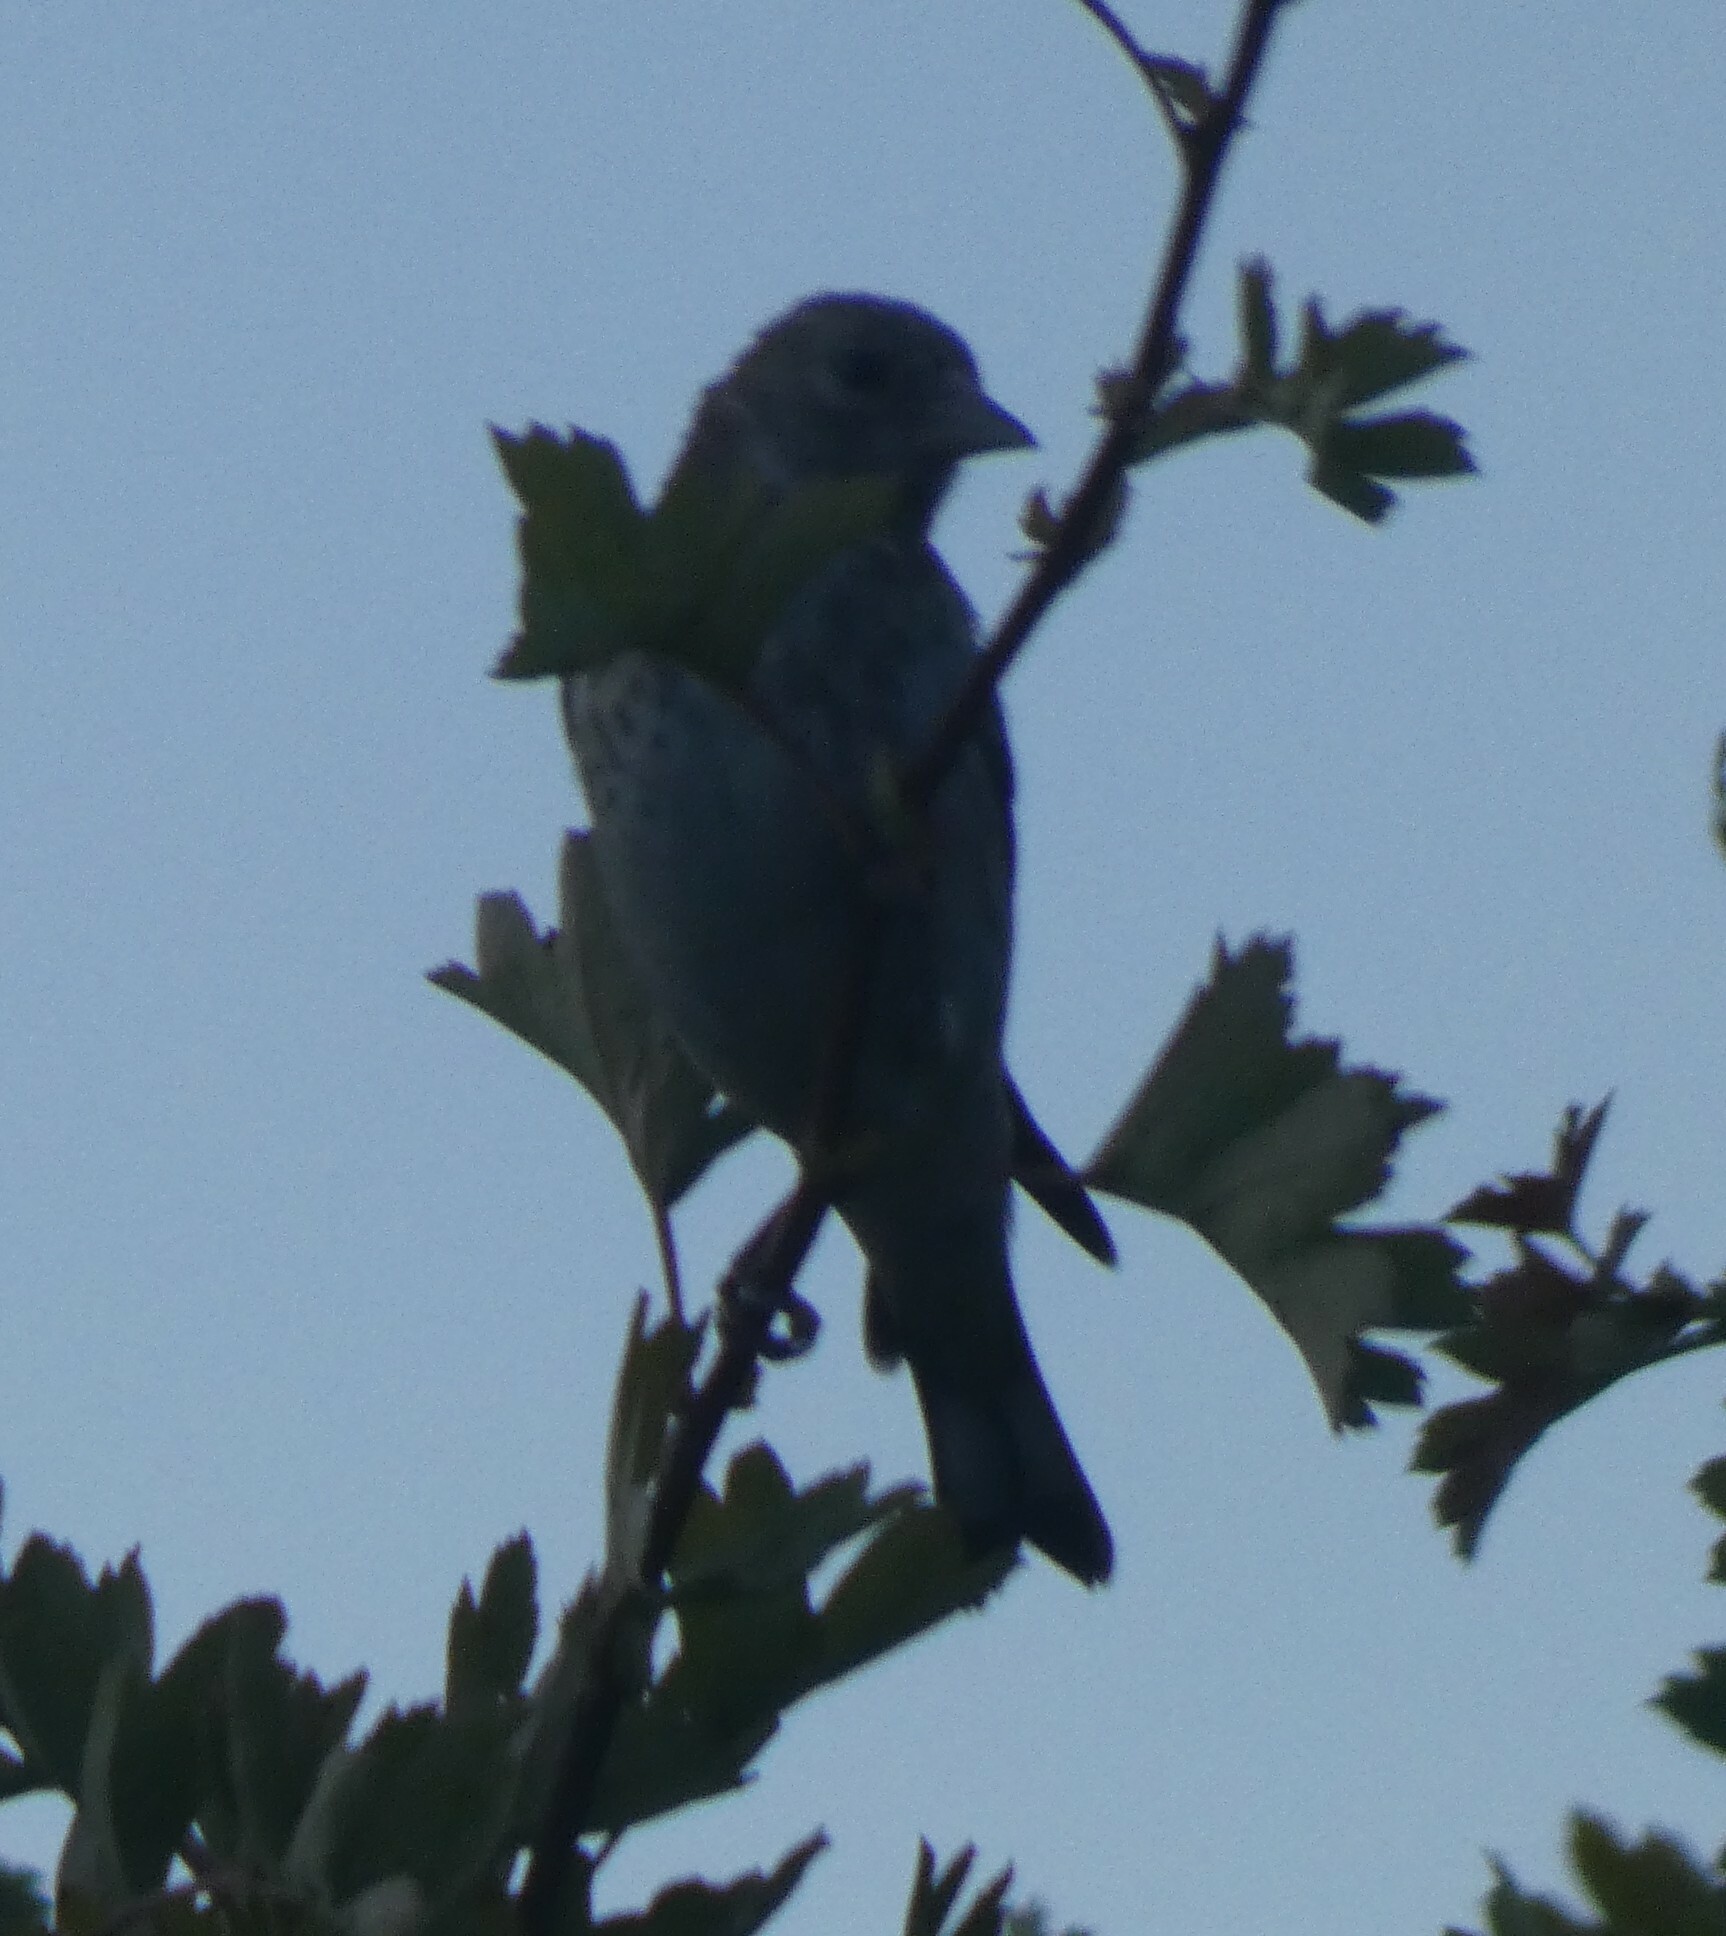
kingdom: Animalia
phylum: Chordata
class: Aves
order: Passeriformes
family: Fringillidae
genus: Carduelis
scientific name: Carduelis carduelis
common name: European goldfinch
